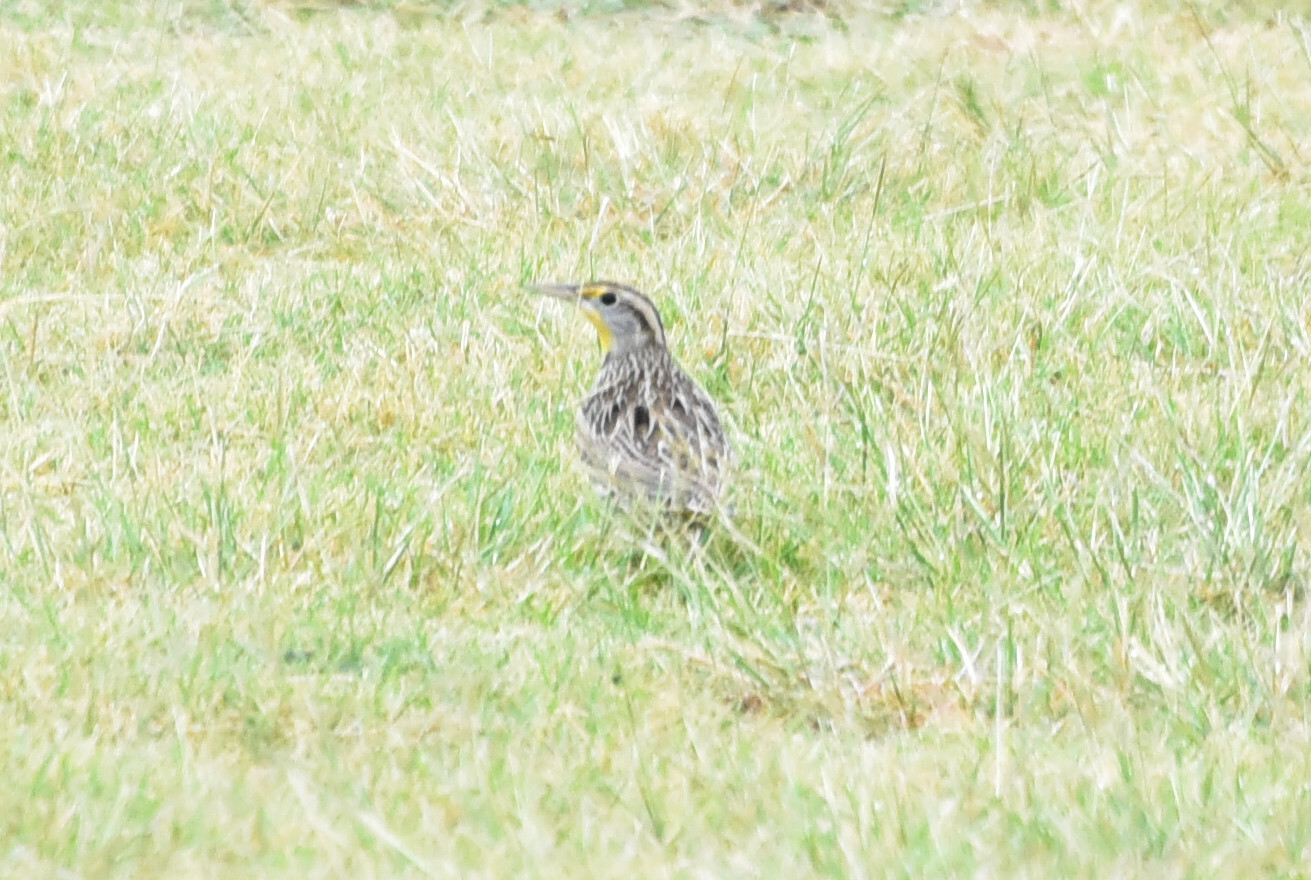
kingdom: Animalia
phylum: Chordata
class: Aves
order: Passeriformes
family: Icteridae
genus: Sturnella
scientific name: Sturnella neglecta
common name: Western meadowlark
